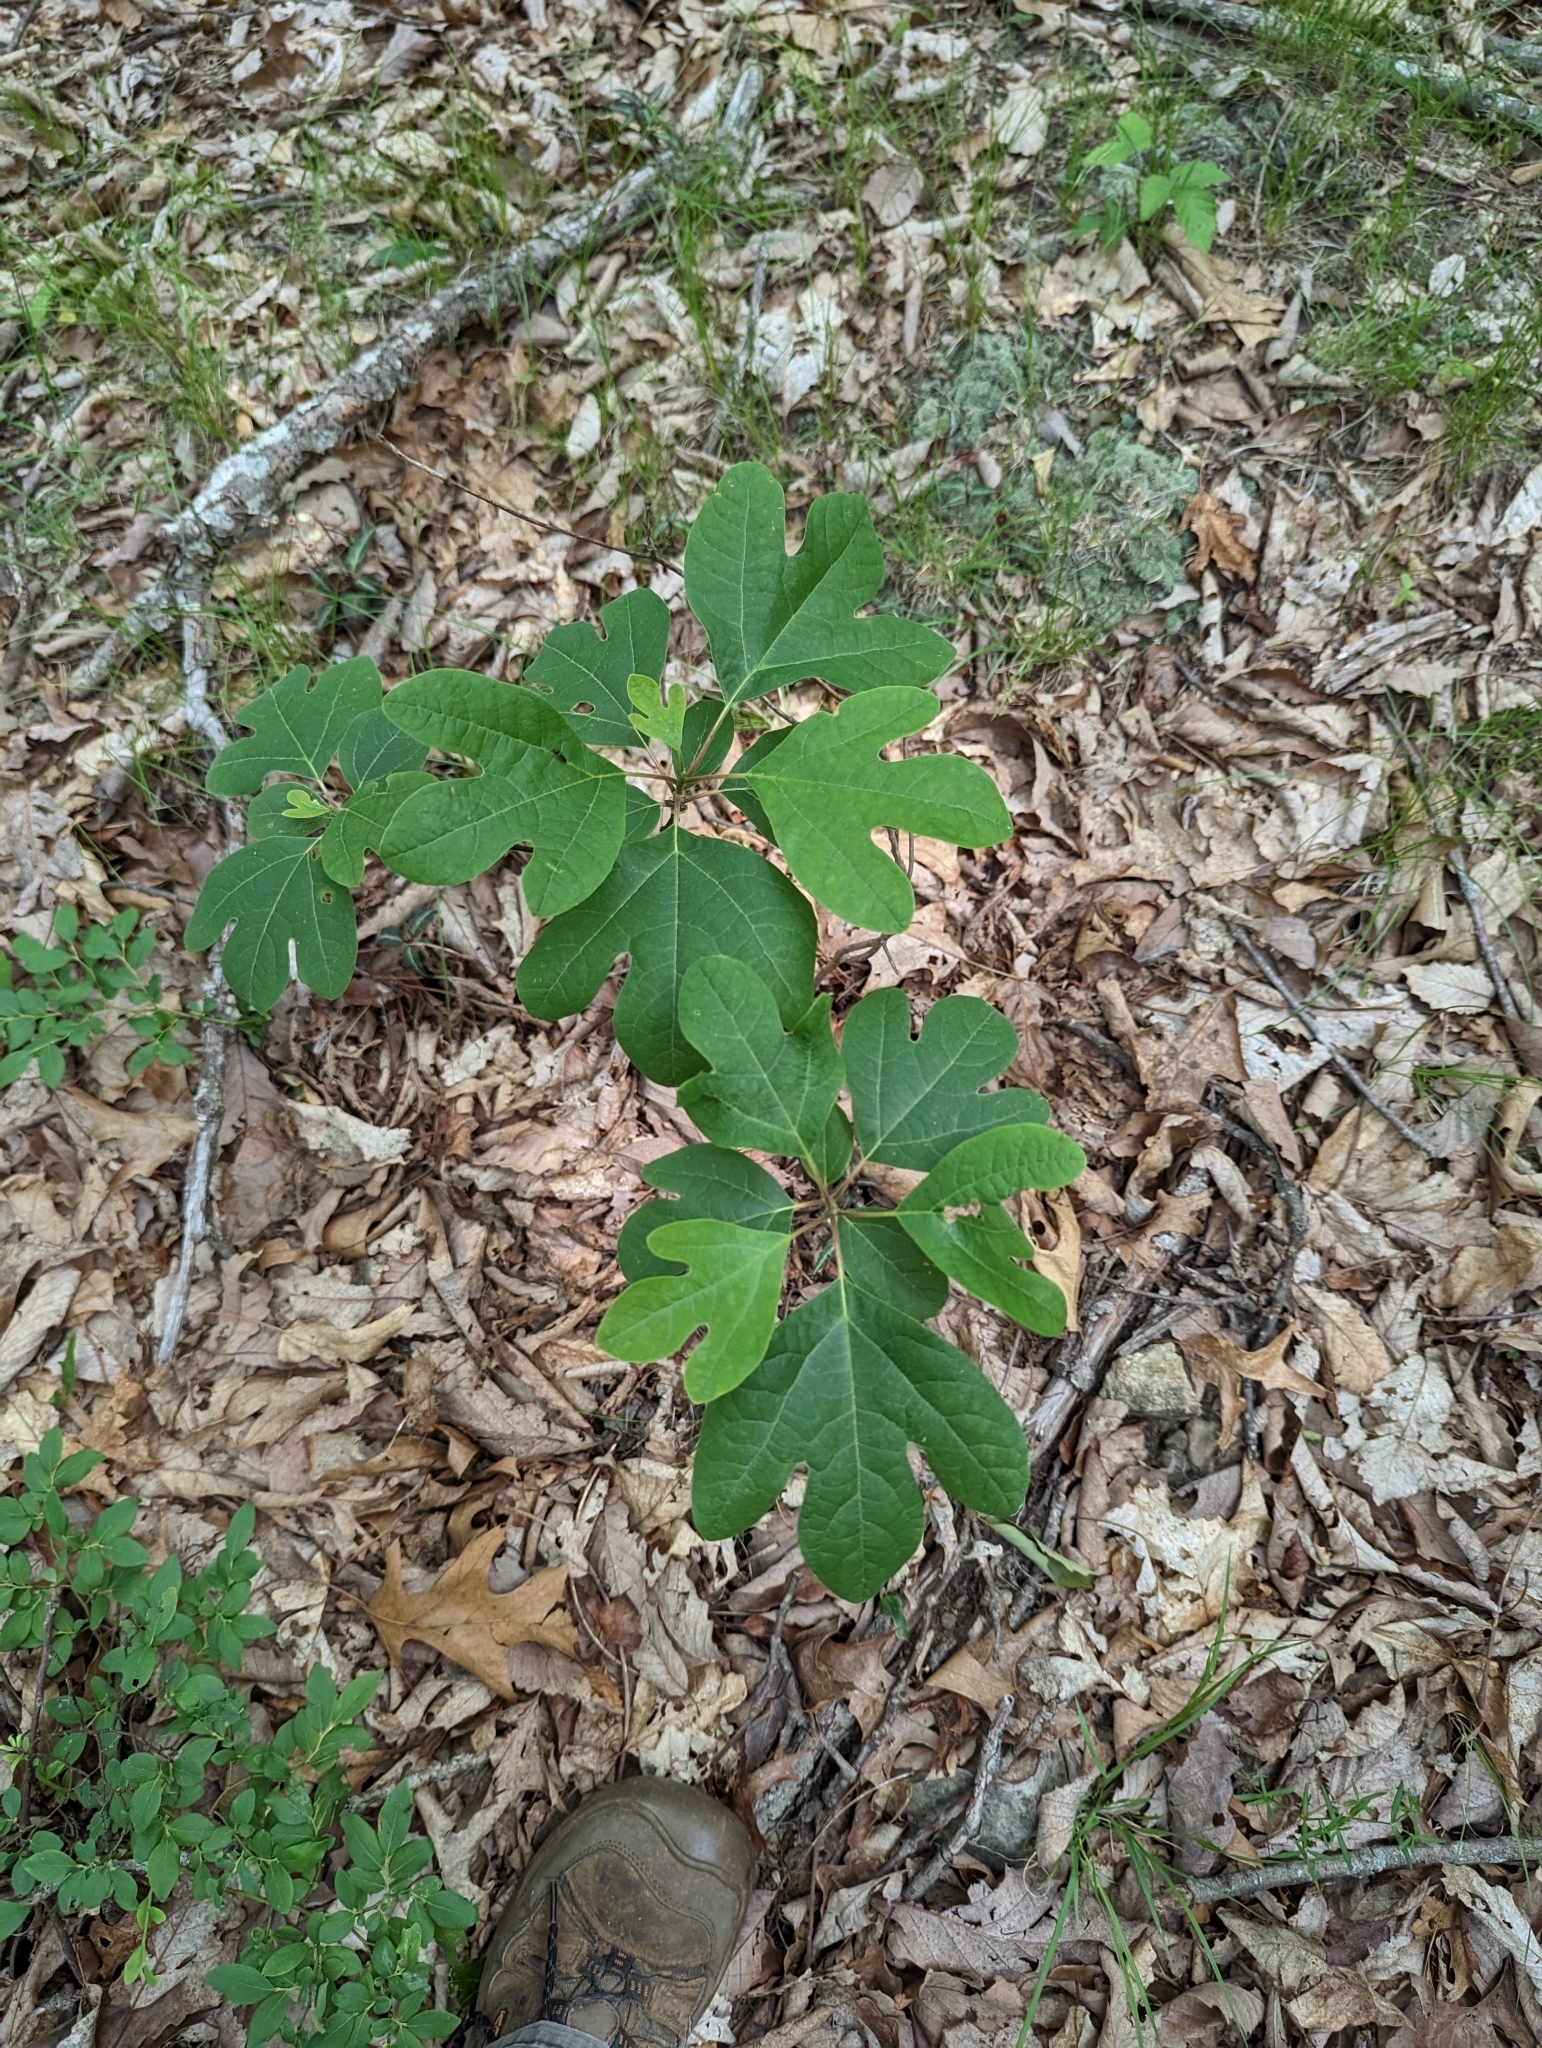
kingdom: Plantae
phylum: Tracheophyta
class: Magnoliopsida
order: Laurales
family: Lauraceae
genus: Sassafras
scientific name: Sassafras albidum
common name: Sassafras
